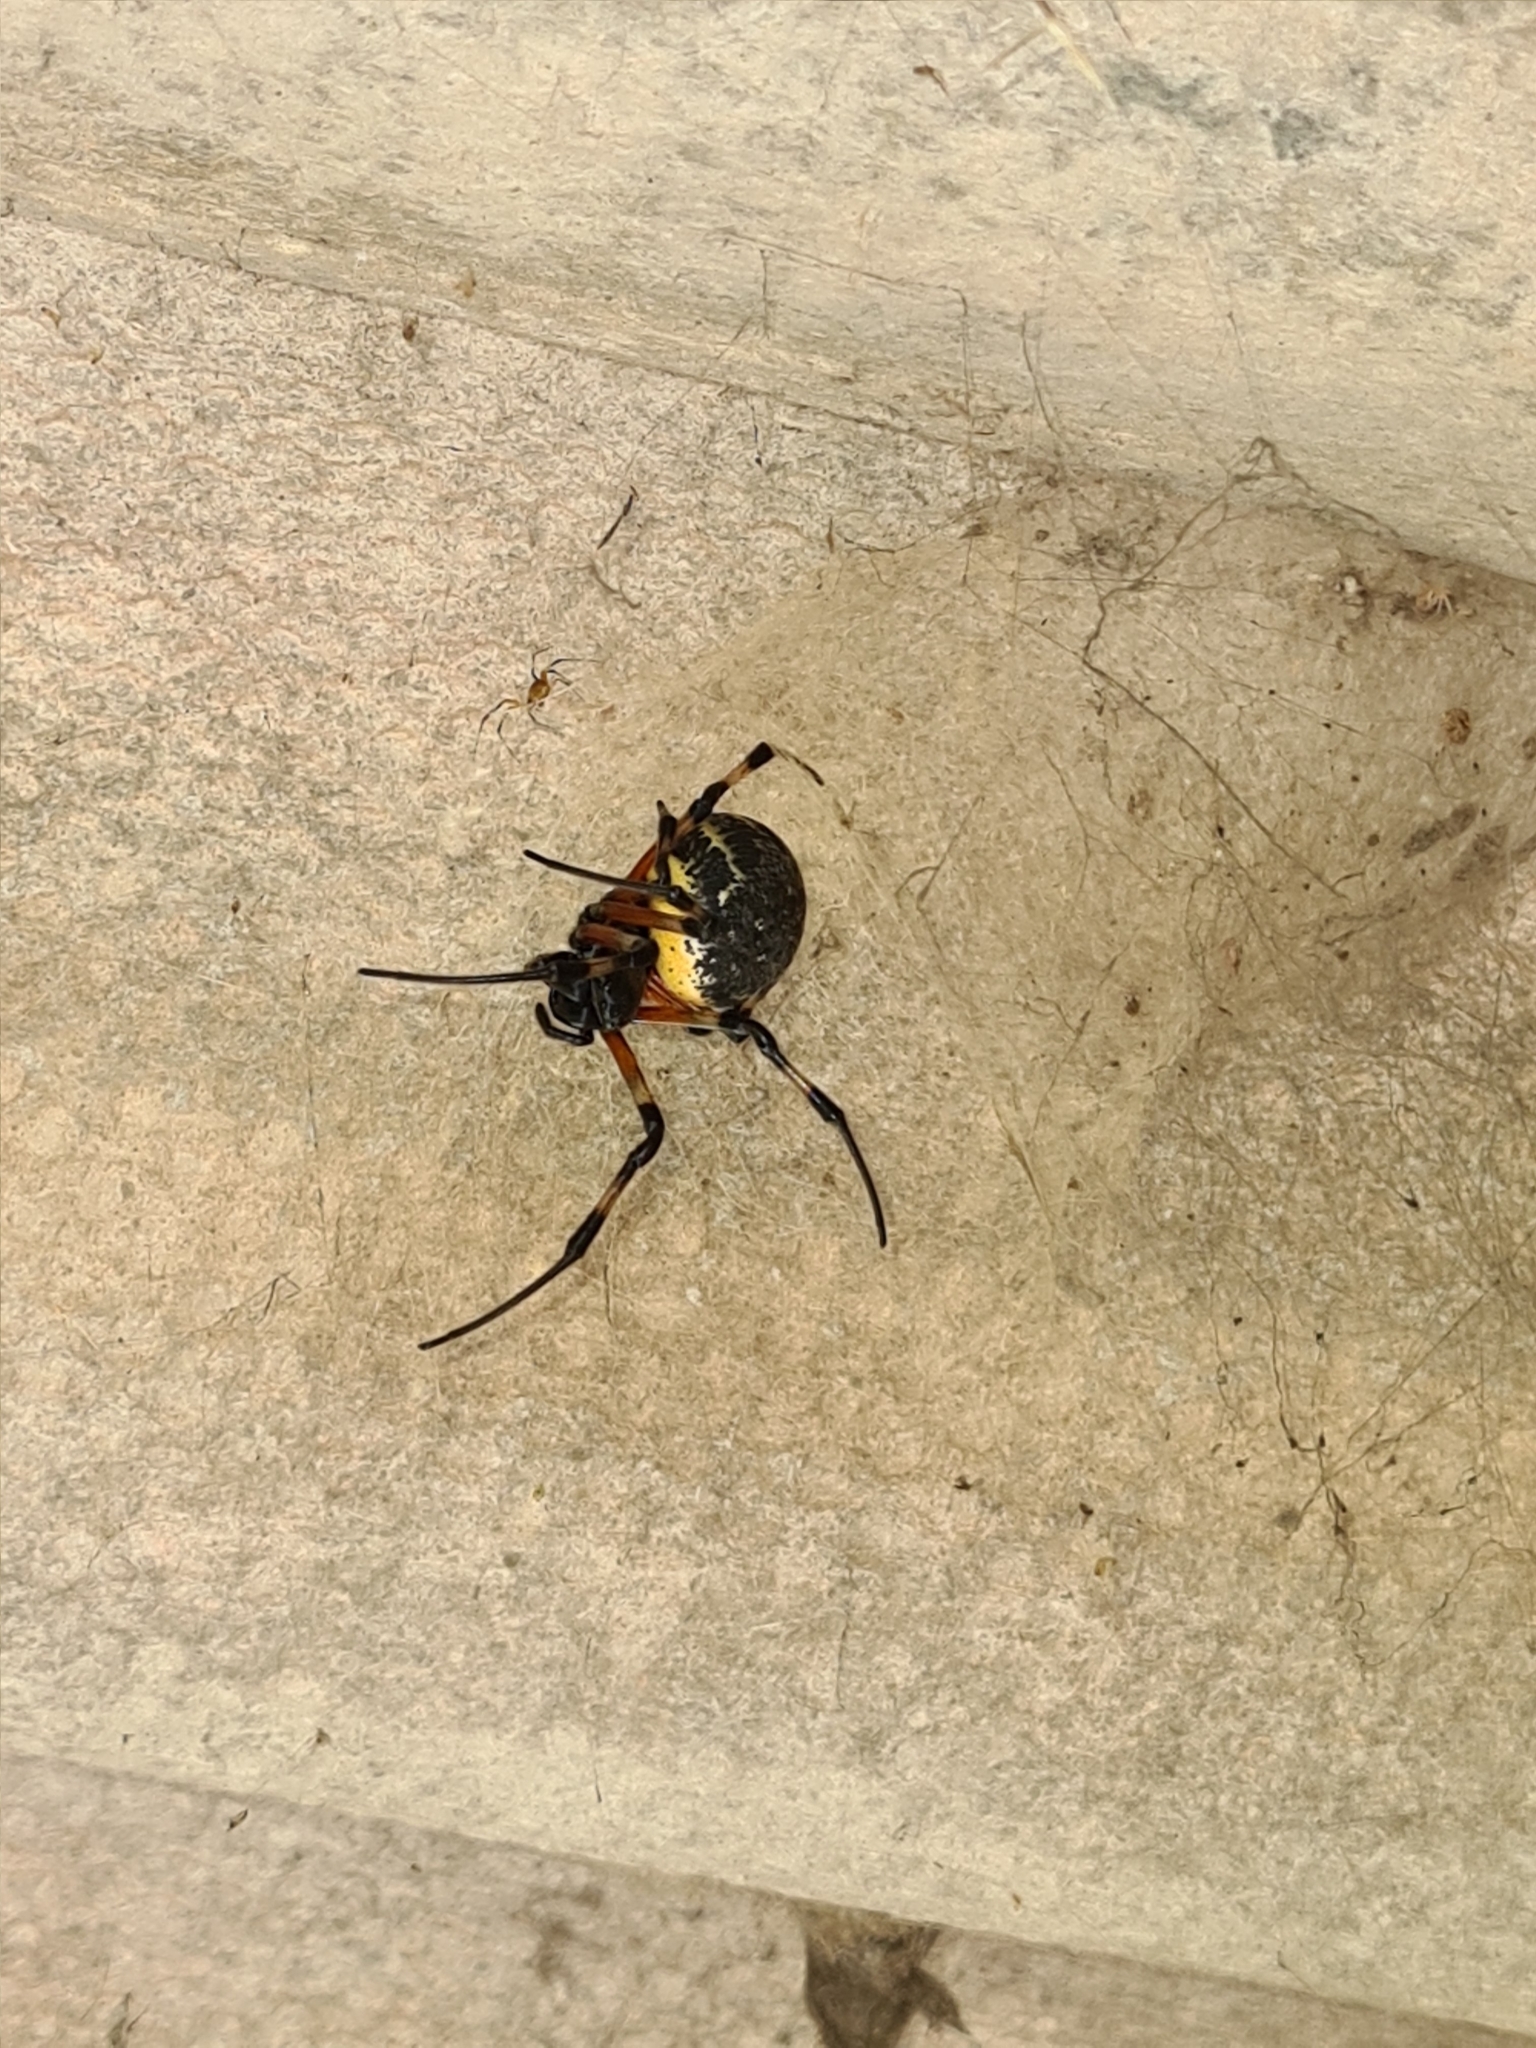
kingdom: Animalia
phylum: Arthropoda
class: Arachnida
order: Araneae
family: Araneidae
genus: Nephilingis
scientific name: Nephilingis cruentata
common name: African hermit spider
